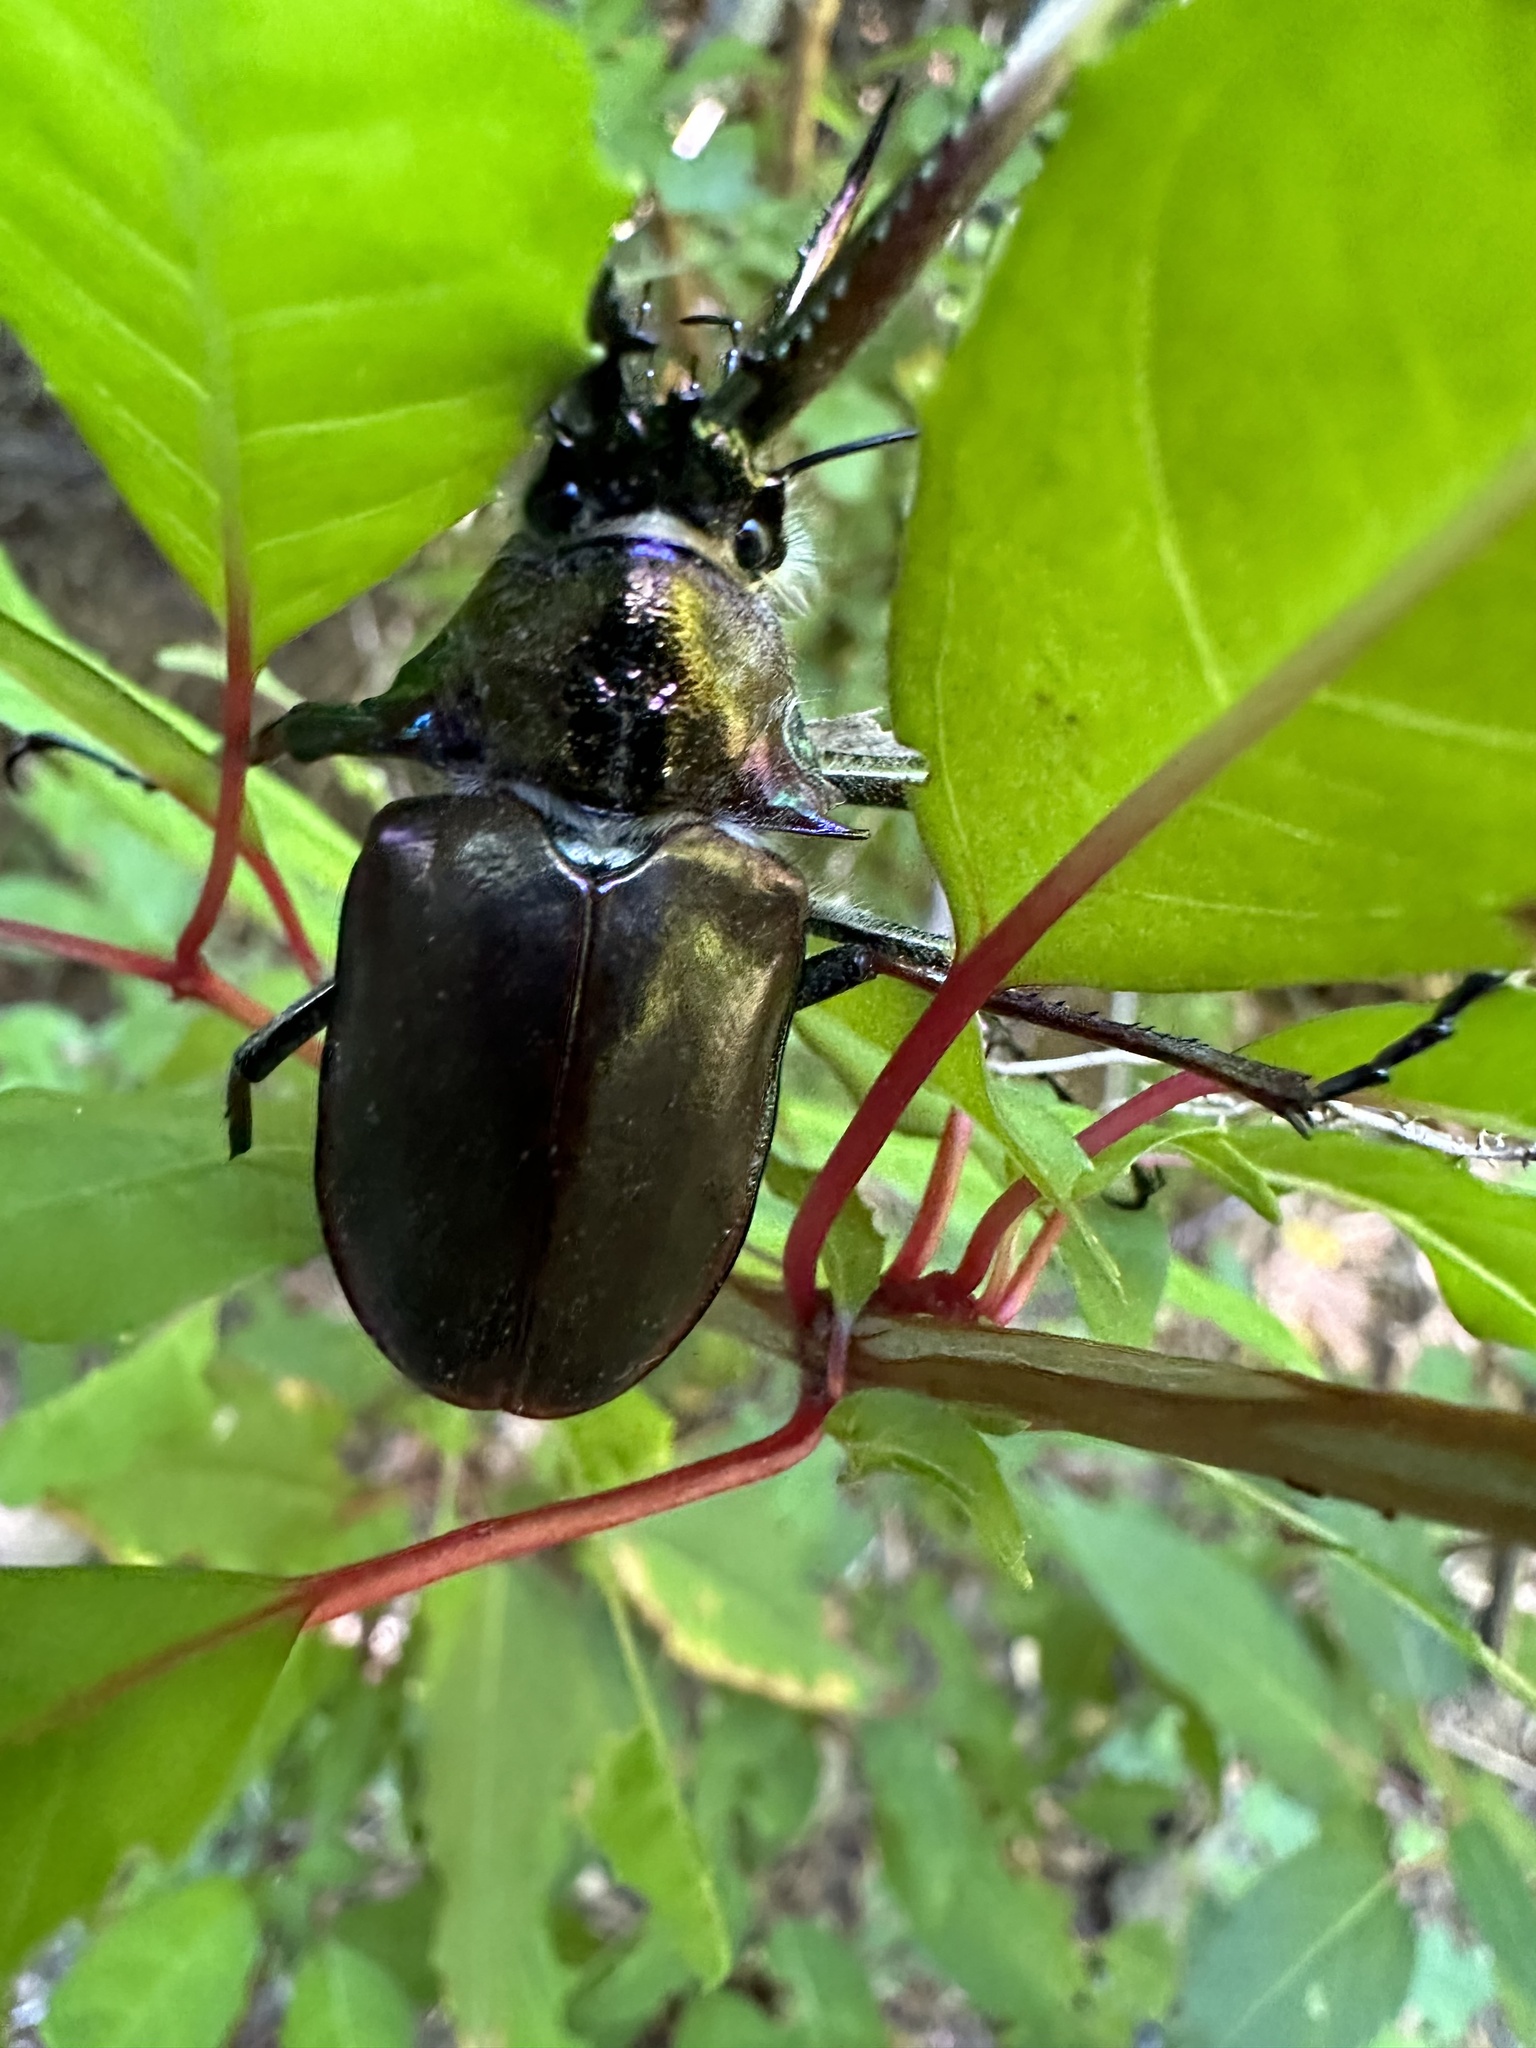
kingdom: Animalia
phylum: Arthropoda
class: Insecta
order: Coleoptera
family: Lucanidae
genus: Chiasognathus
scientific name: Chiasognathus grantii
